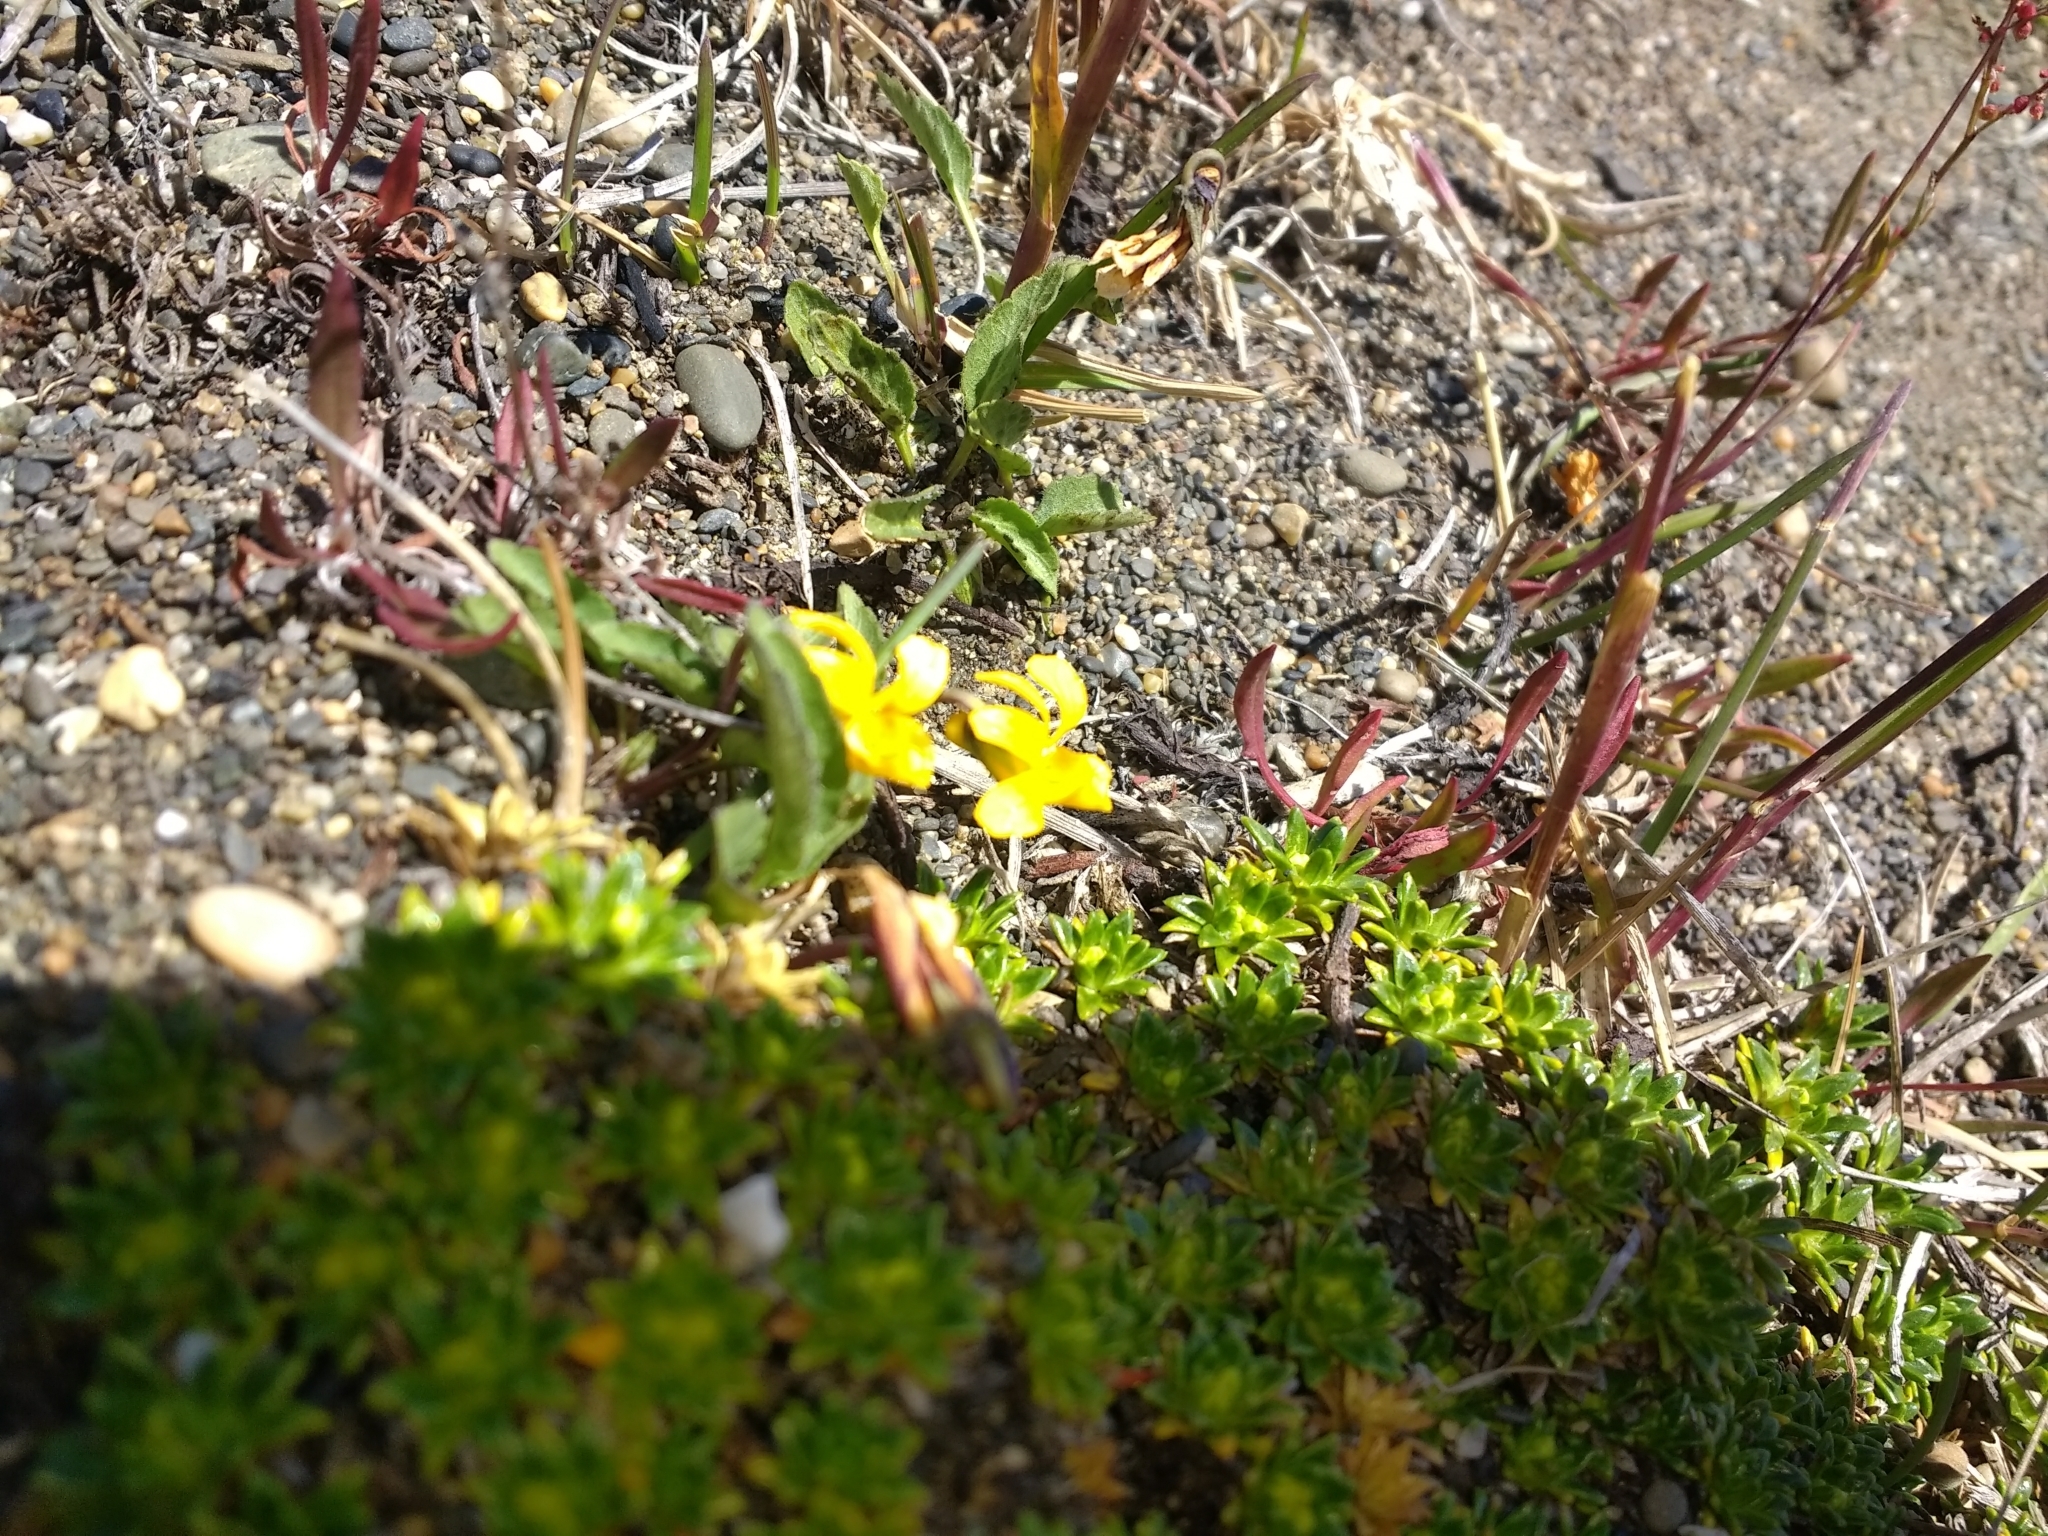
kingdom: Plantae
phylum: Tracheophyta
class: Magnoliopsida
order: Malpighiales
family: Violaceae
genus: Viola
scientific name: Viola maculata
